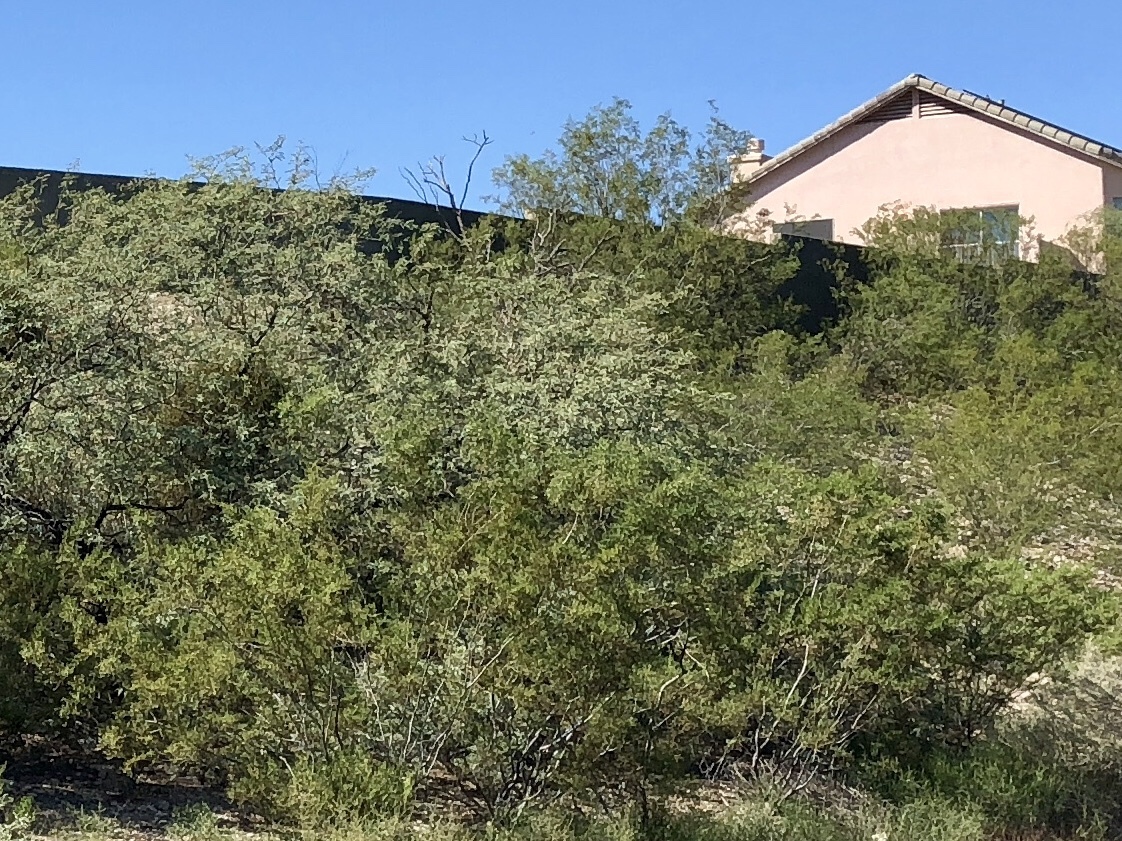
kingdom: Plantae
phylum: Tracheophyta
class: Magnoliopsida
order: Zygophyllales
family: Zygophyllaceae
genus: Larrea
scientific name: Larrea tridentata
